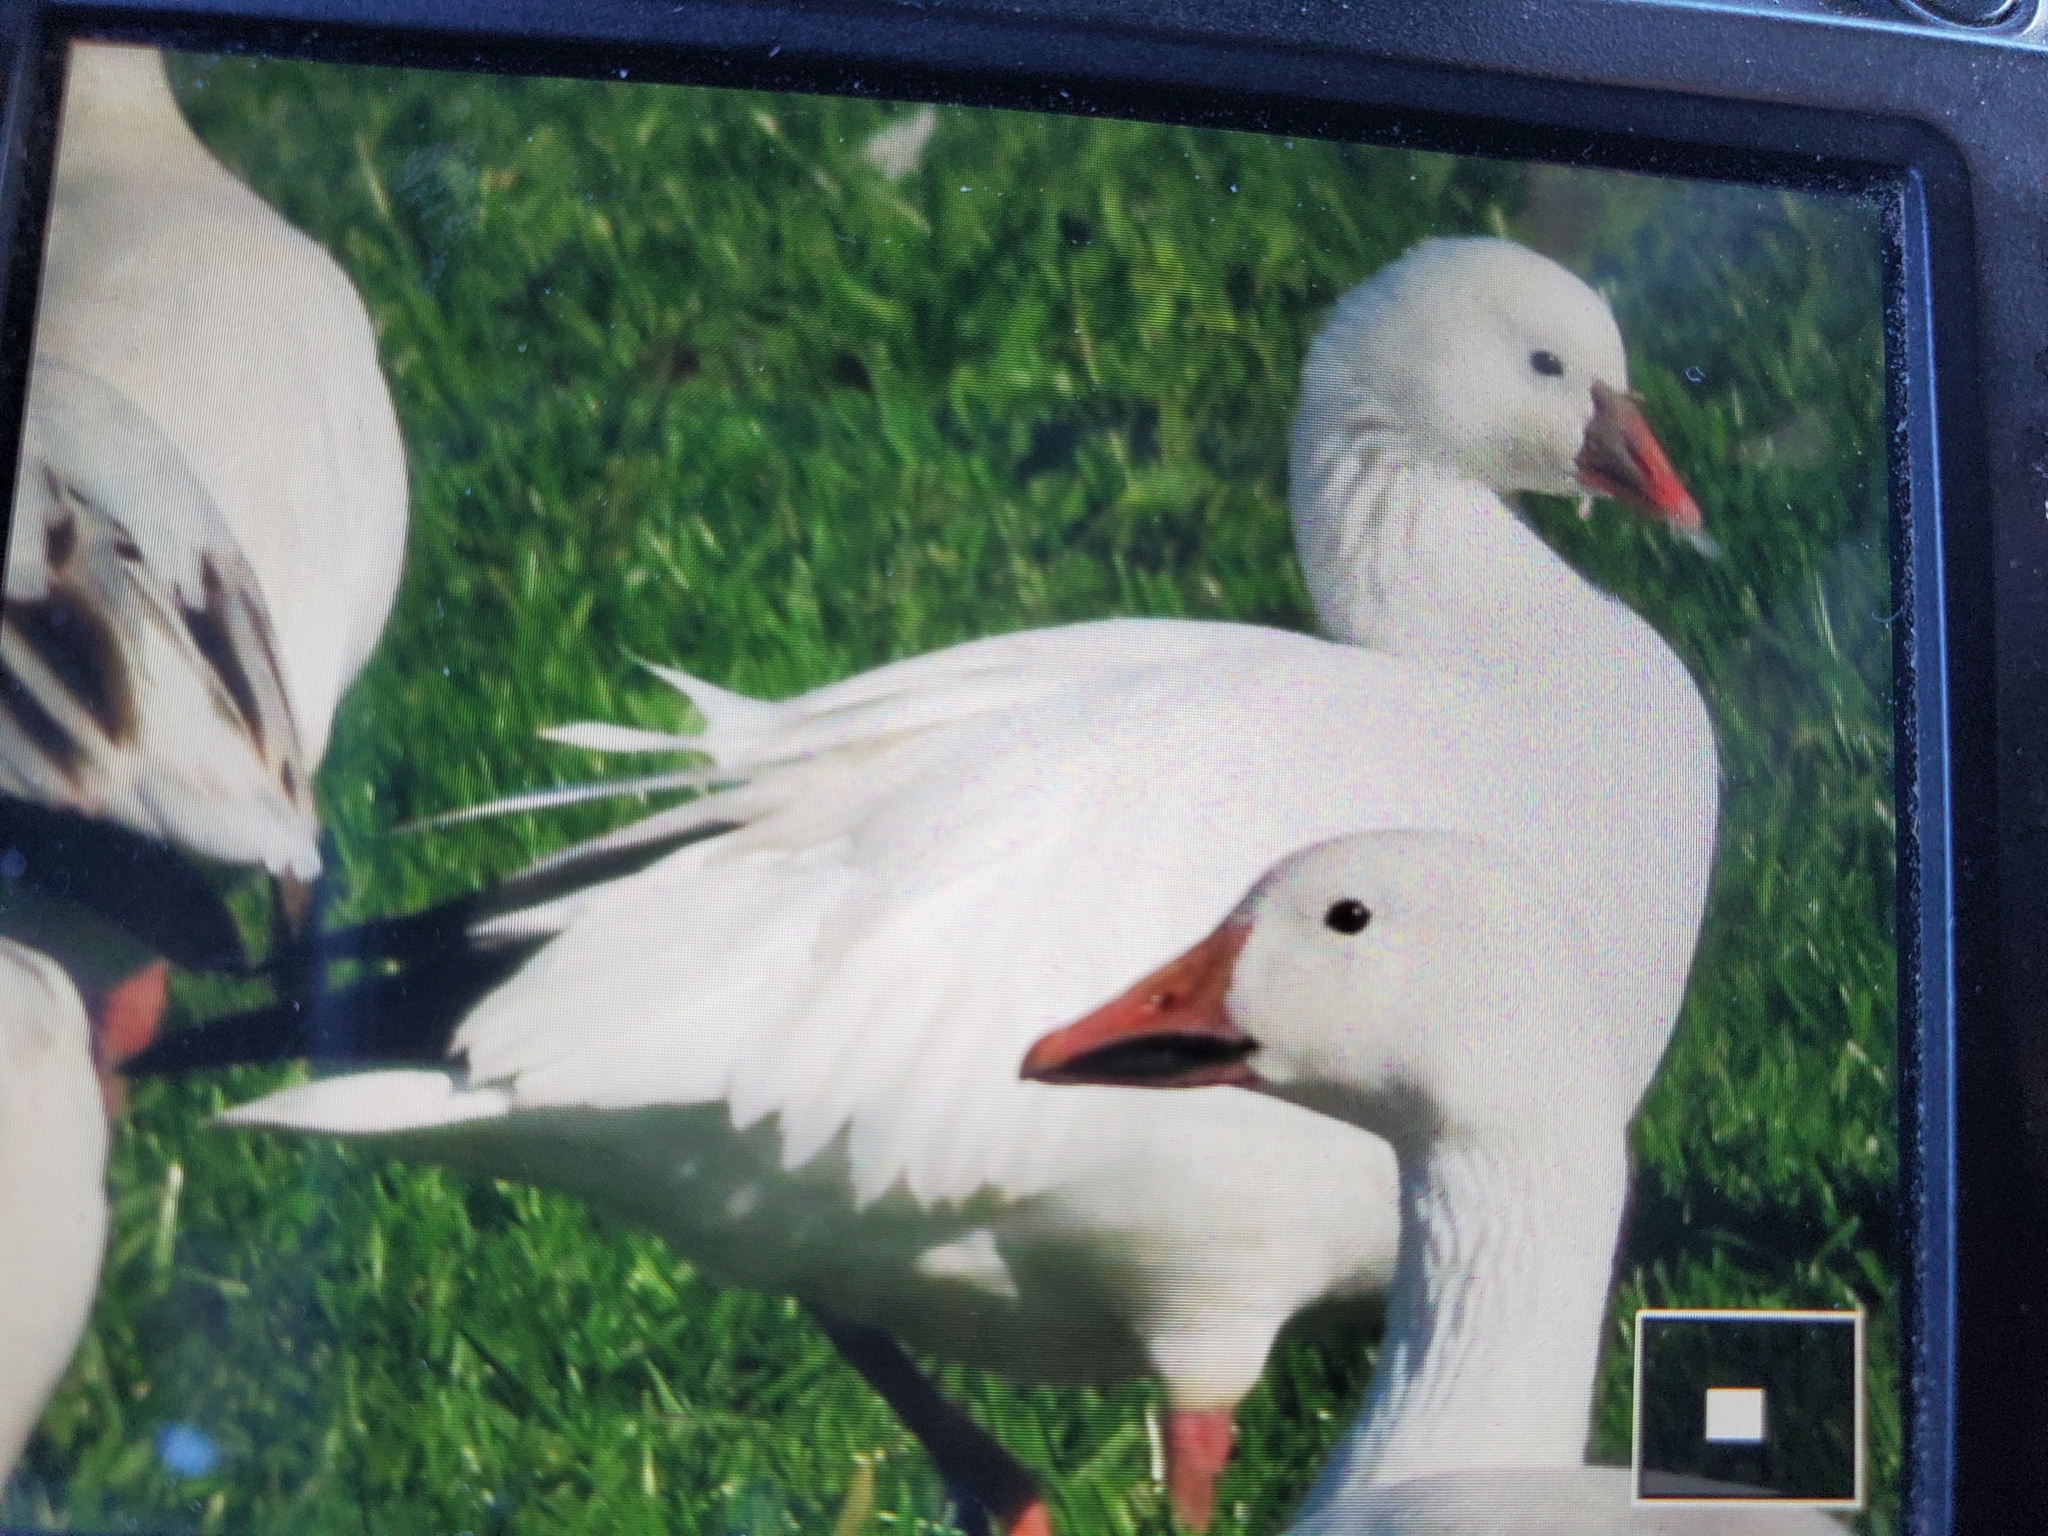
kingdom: Animalia
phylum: Chordata
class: Aves
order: Anseriformes
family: Anatidae
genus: Anser
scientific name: Anser rossii
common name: Ross's goose
